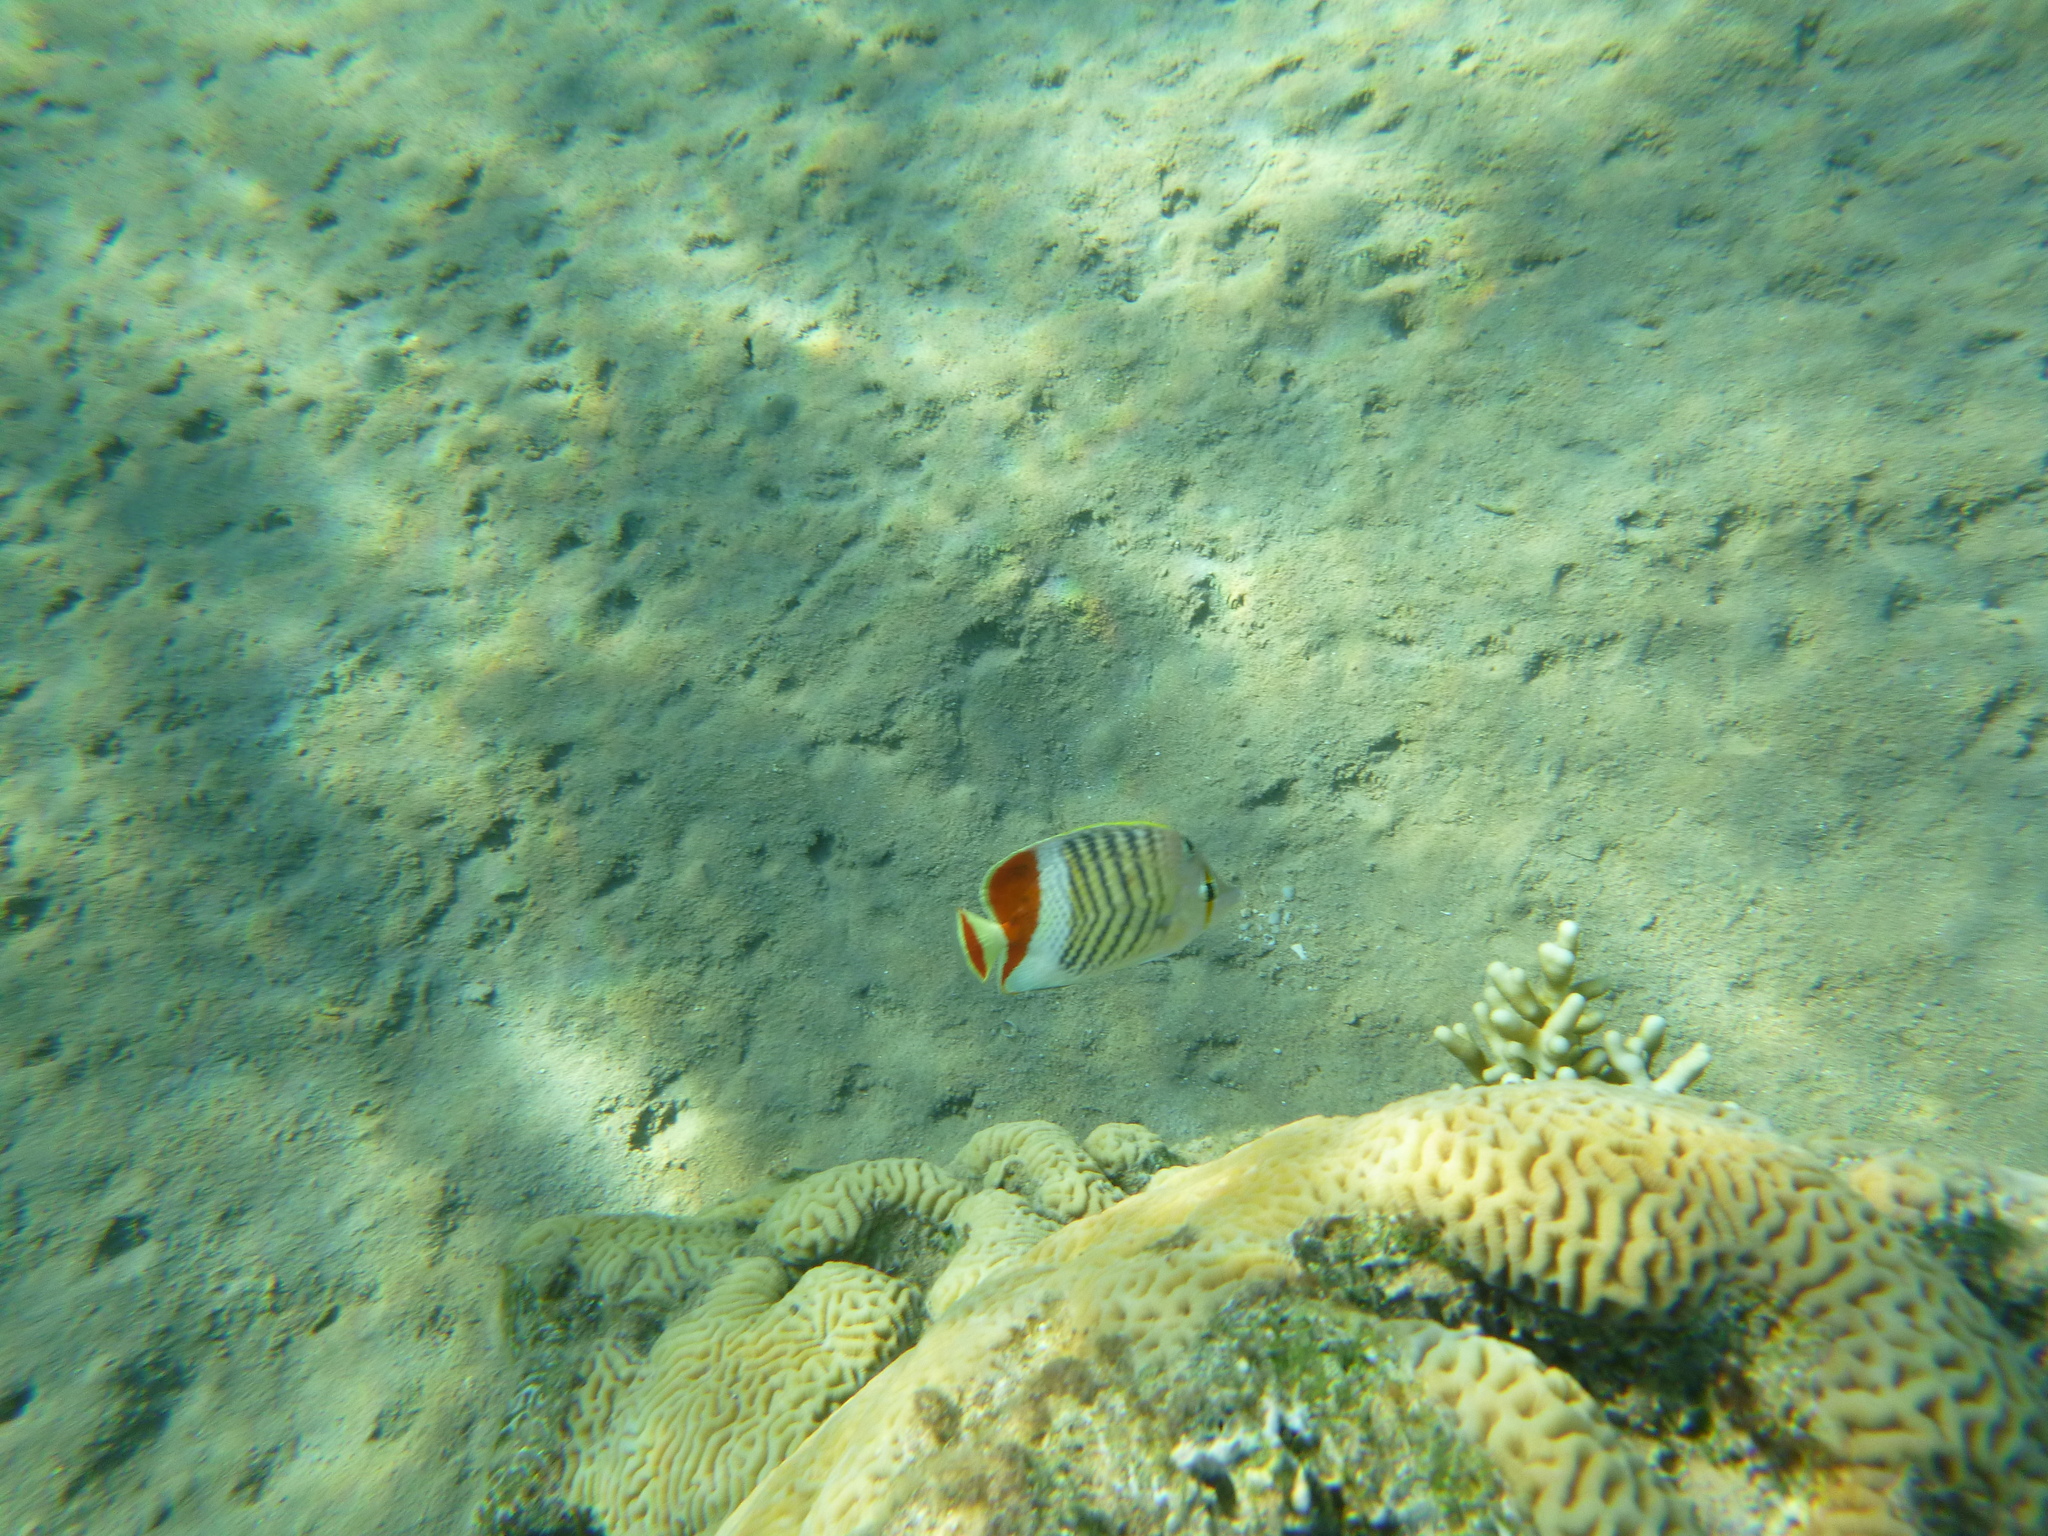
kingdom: Animalia
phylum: Chordata
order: Perciformes
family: Chaetodontidae
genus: Chaetodon
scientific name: Chaetodon paucifasciatus
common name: Crown butterflyfish
